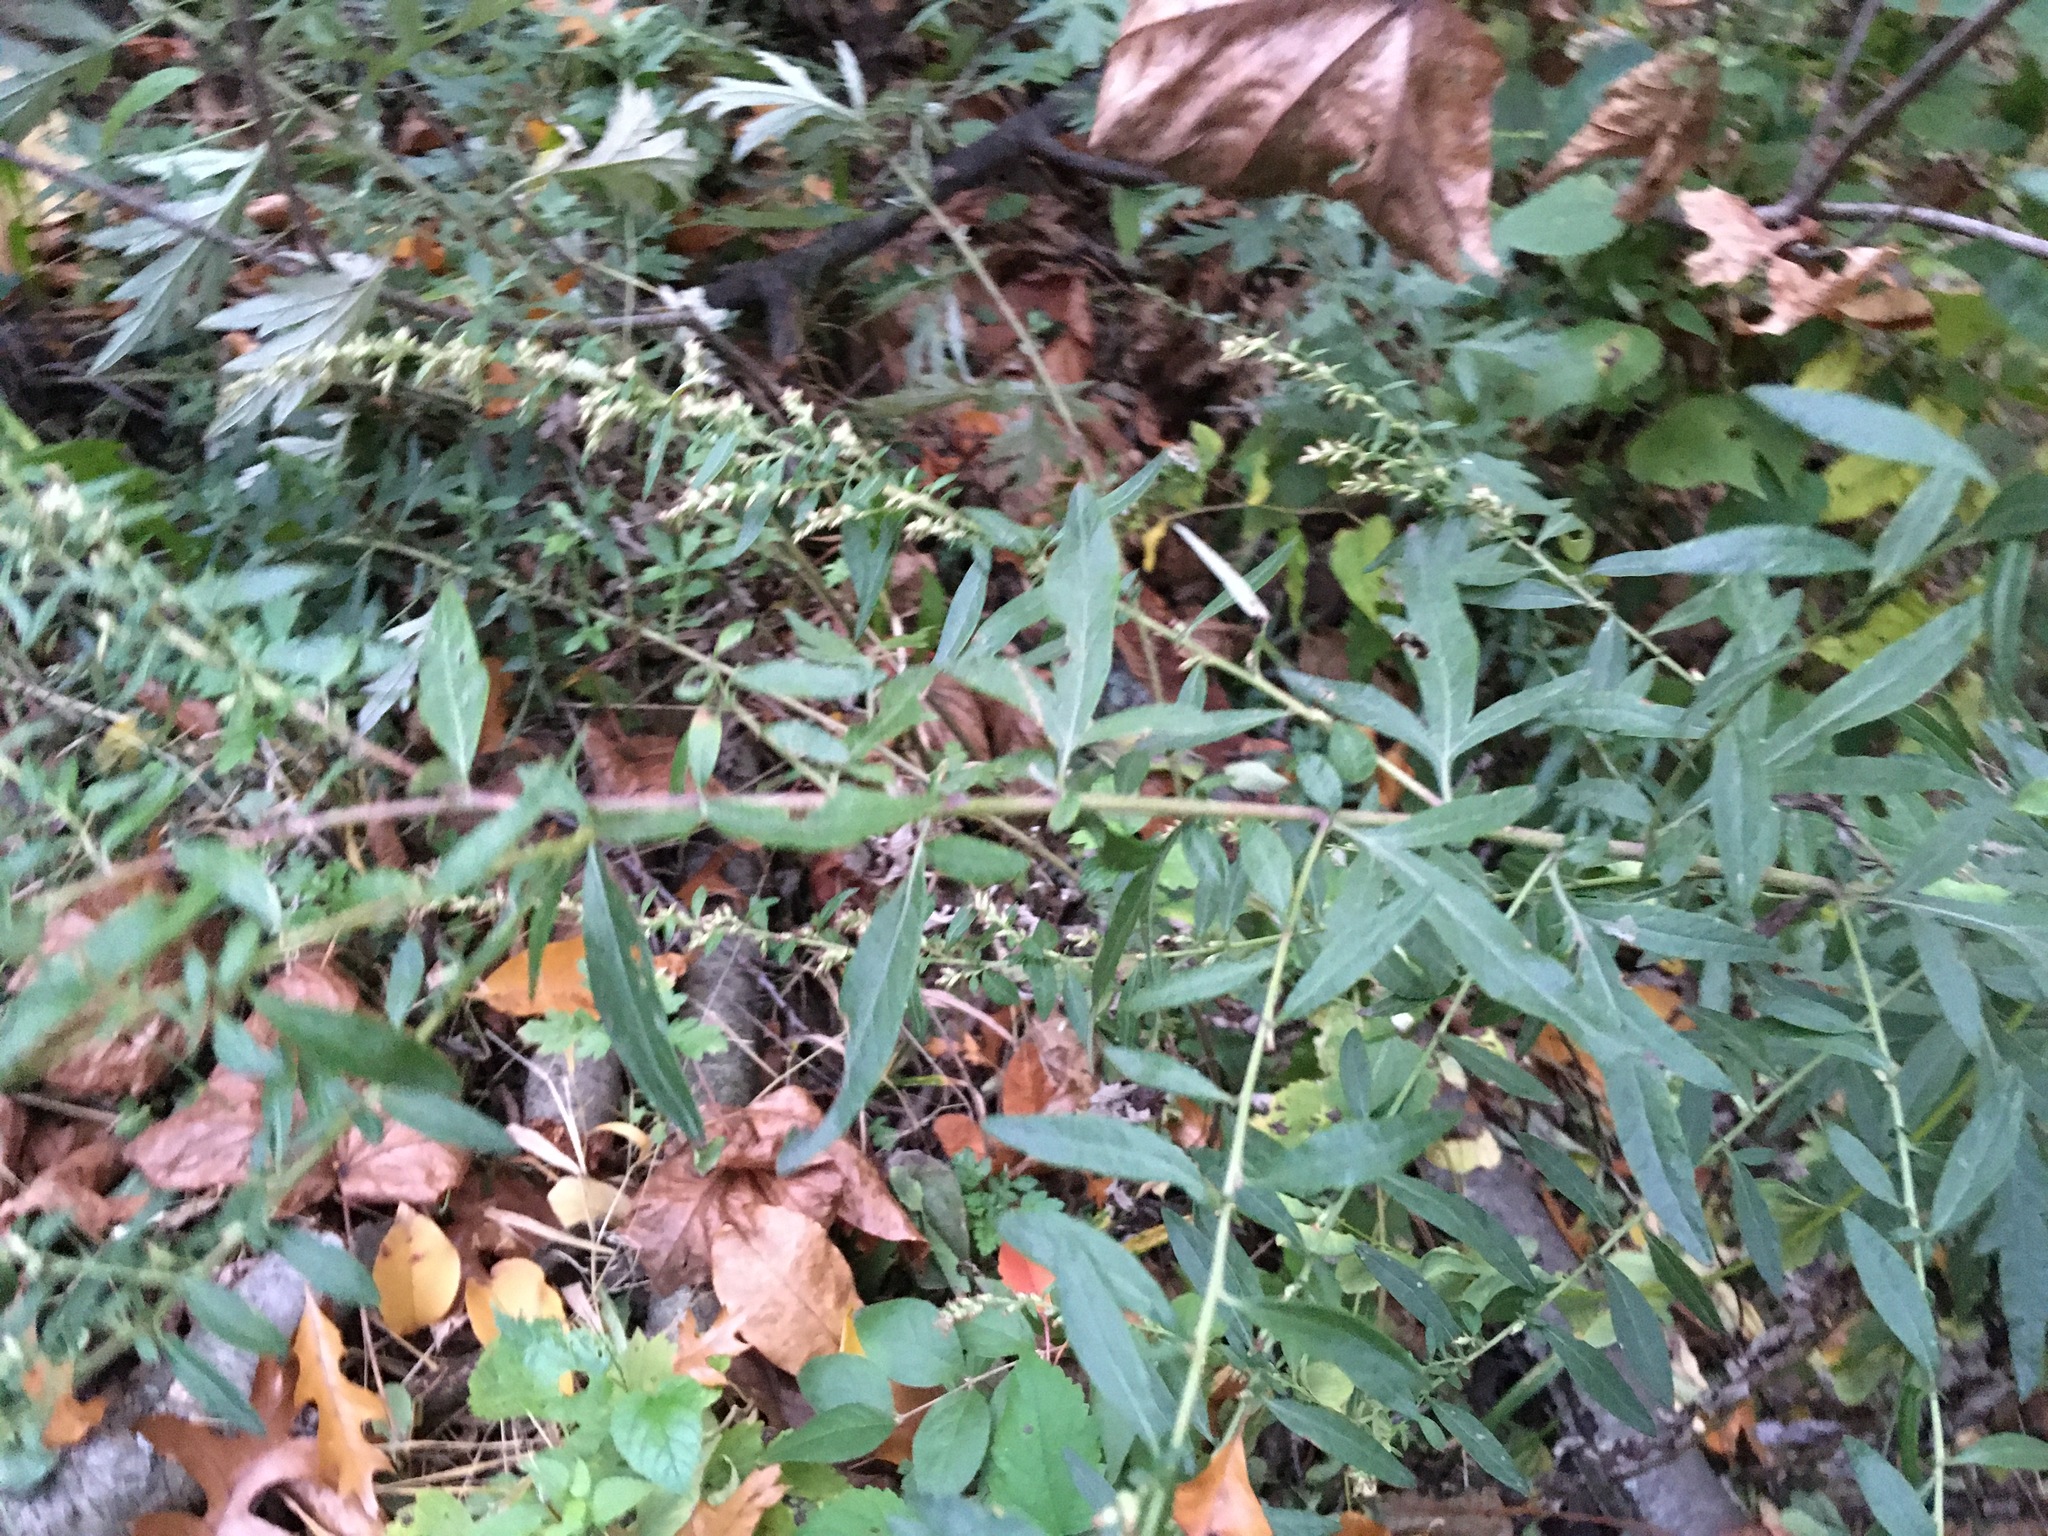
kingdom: Plantae
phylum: Tracheophyta
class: Magnoliopsida
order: Asterales
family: Asteraceae
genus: Artemisia
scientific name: Artemisia vulgaris
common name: Mugwort
